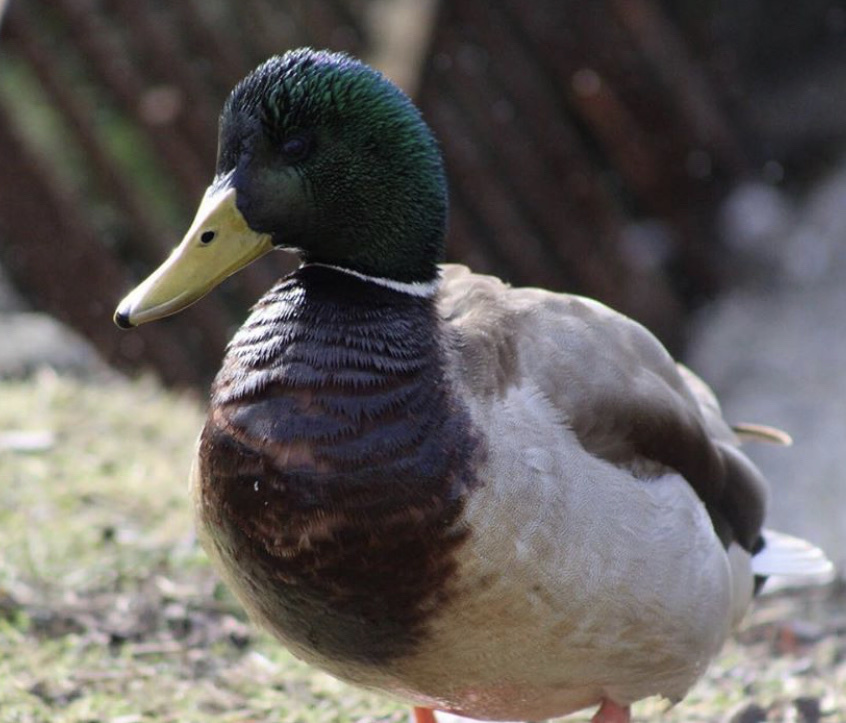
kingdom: Animalia
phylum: Chordata
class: Aves
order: Anseriformes
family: Anatidae
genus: Anas
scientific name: Anas platyrhynchos
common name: Mallard
